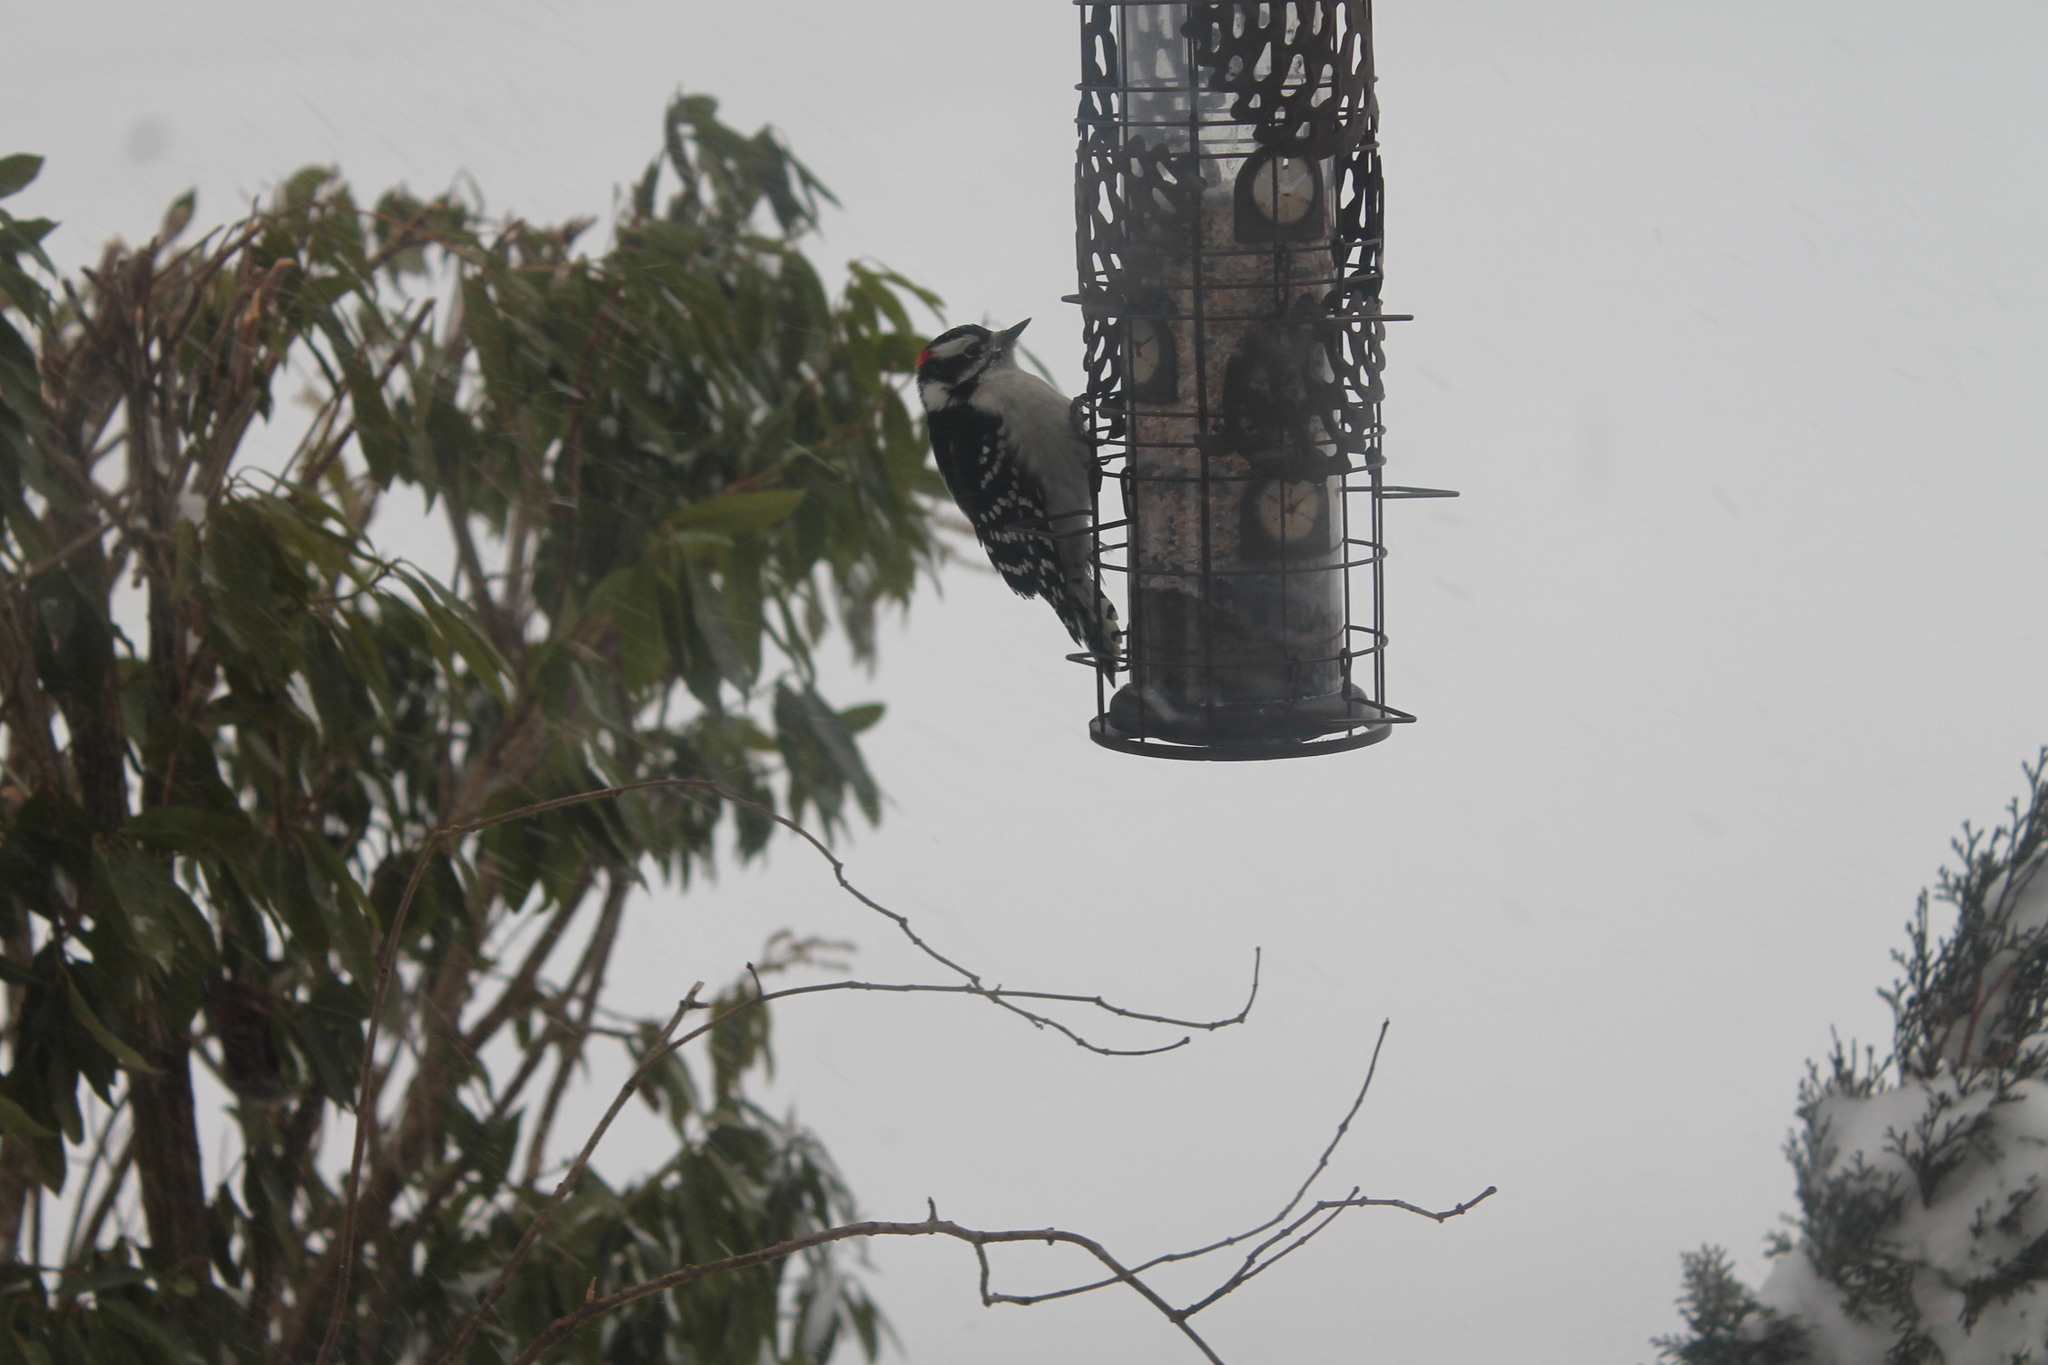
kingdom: Animalia
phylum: Chordata
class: Aves
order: Piciformes
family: Picidae
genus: Dryobates
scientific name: Dryobates pubescens
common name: Downy woodpecker
